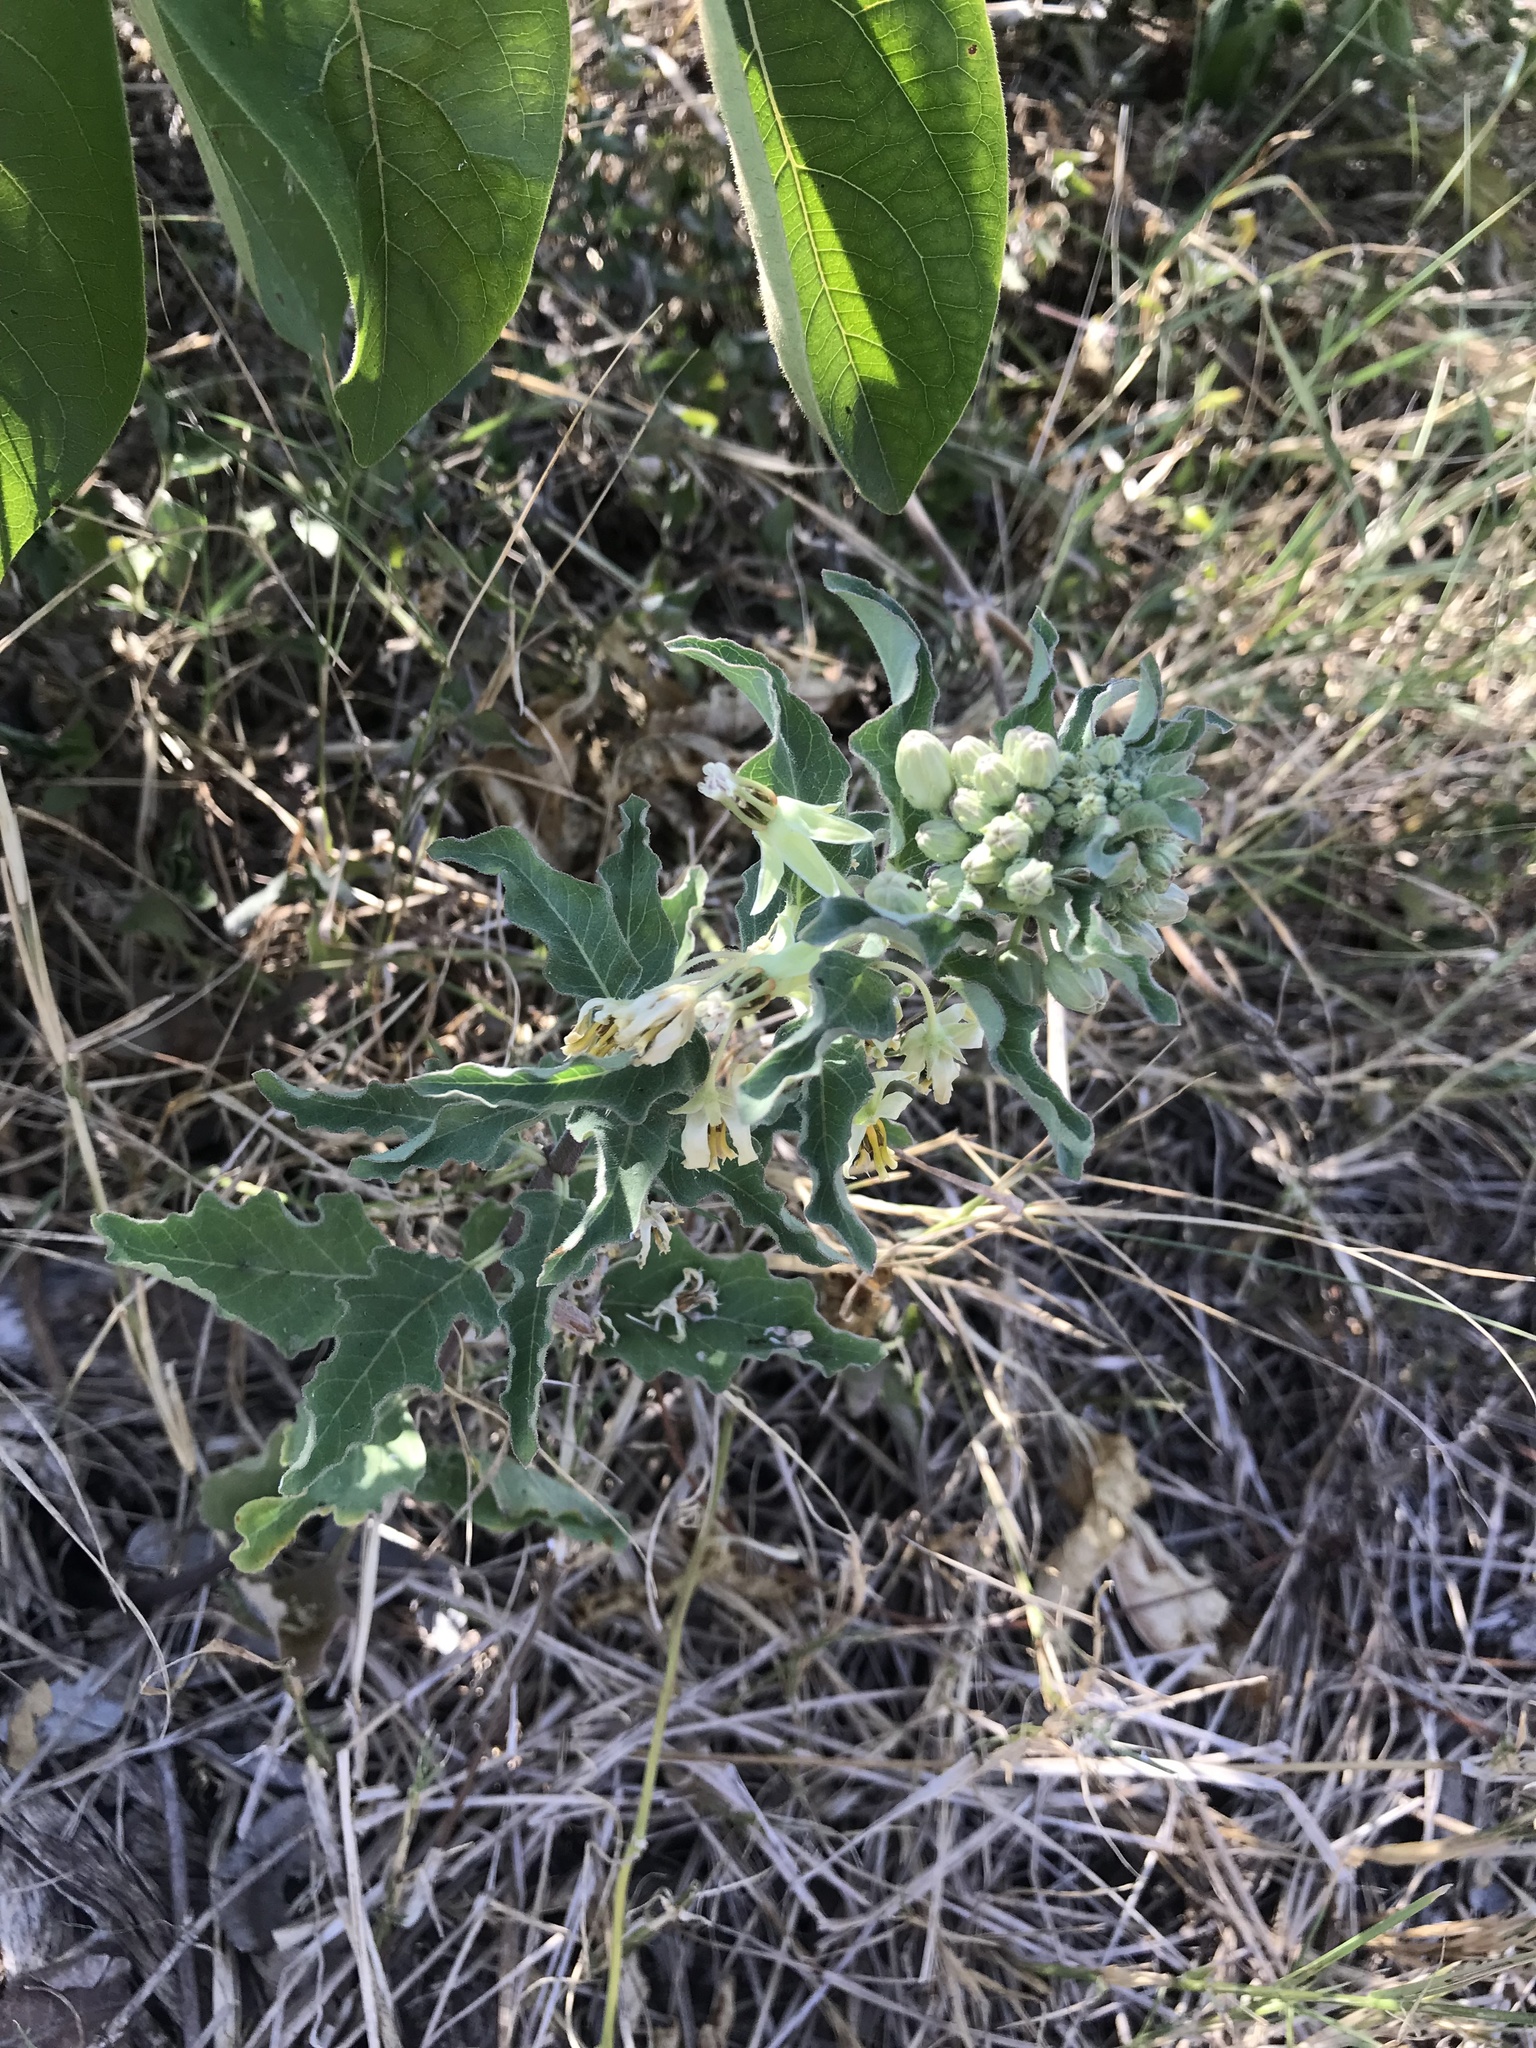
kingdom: Plantae
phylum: Tracheophyta
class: Magnoliopsida
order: Gentianales
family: Apocynaceae
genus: Asclepias
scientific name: Asclepias oenotheroides
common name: Zizotes milkweed
